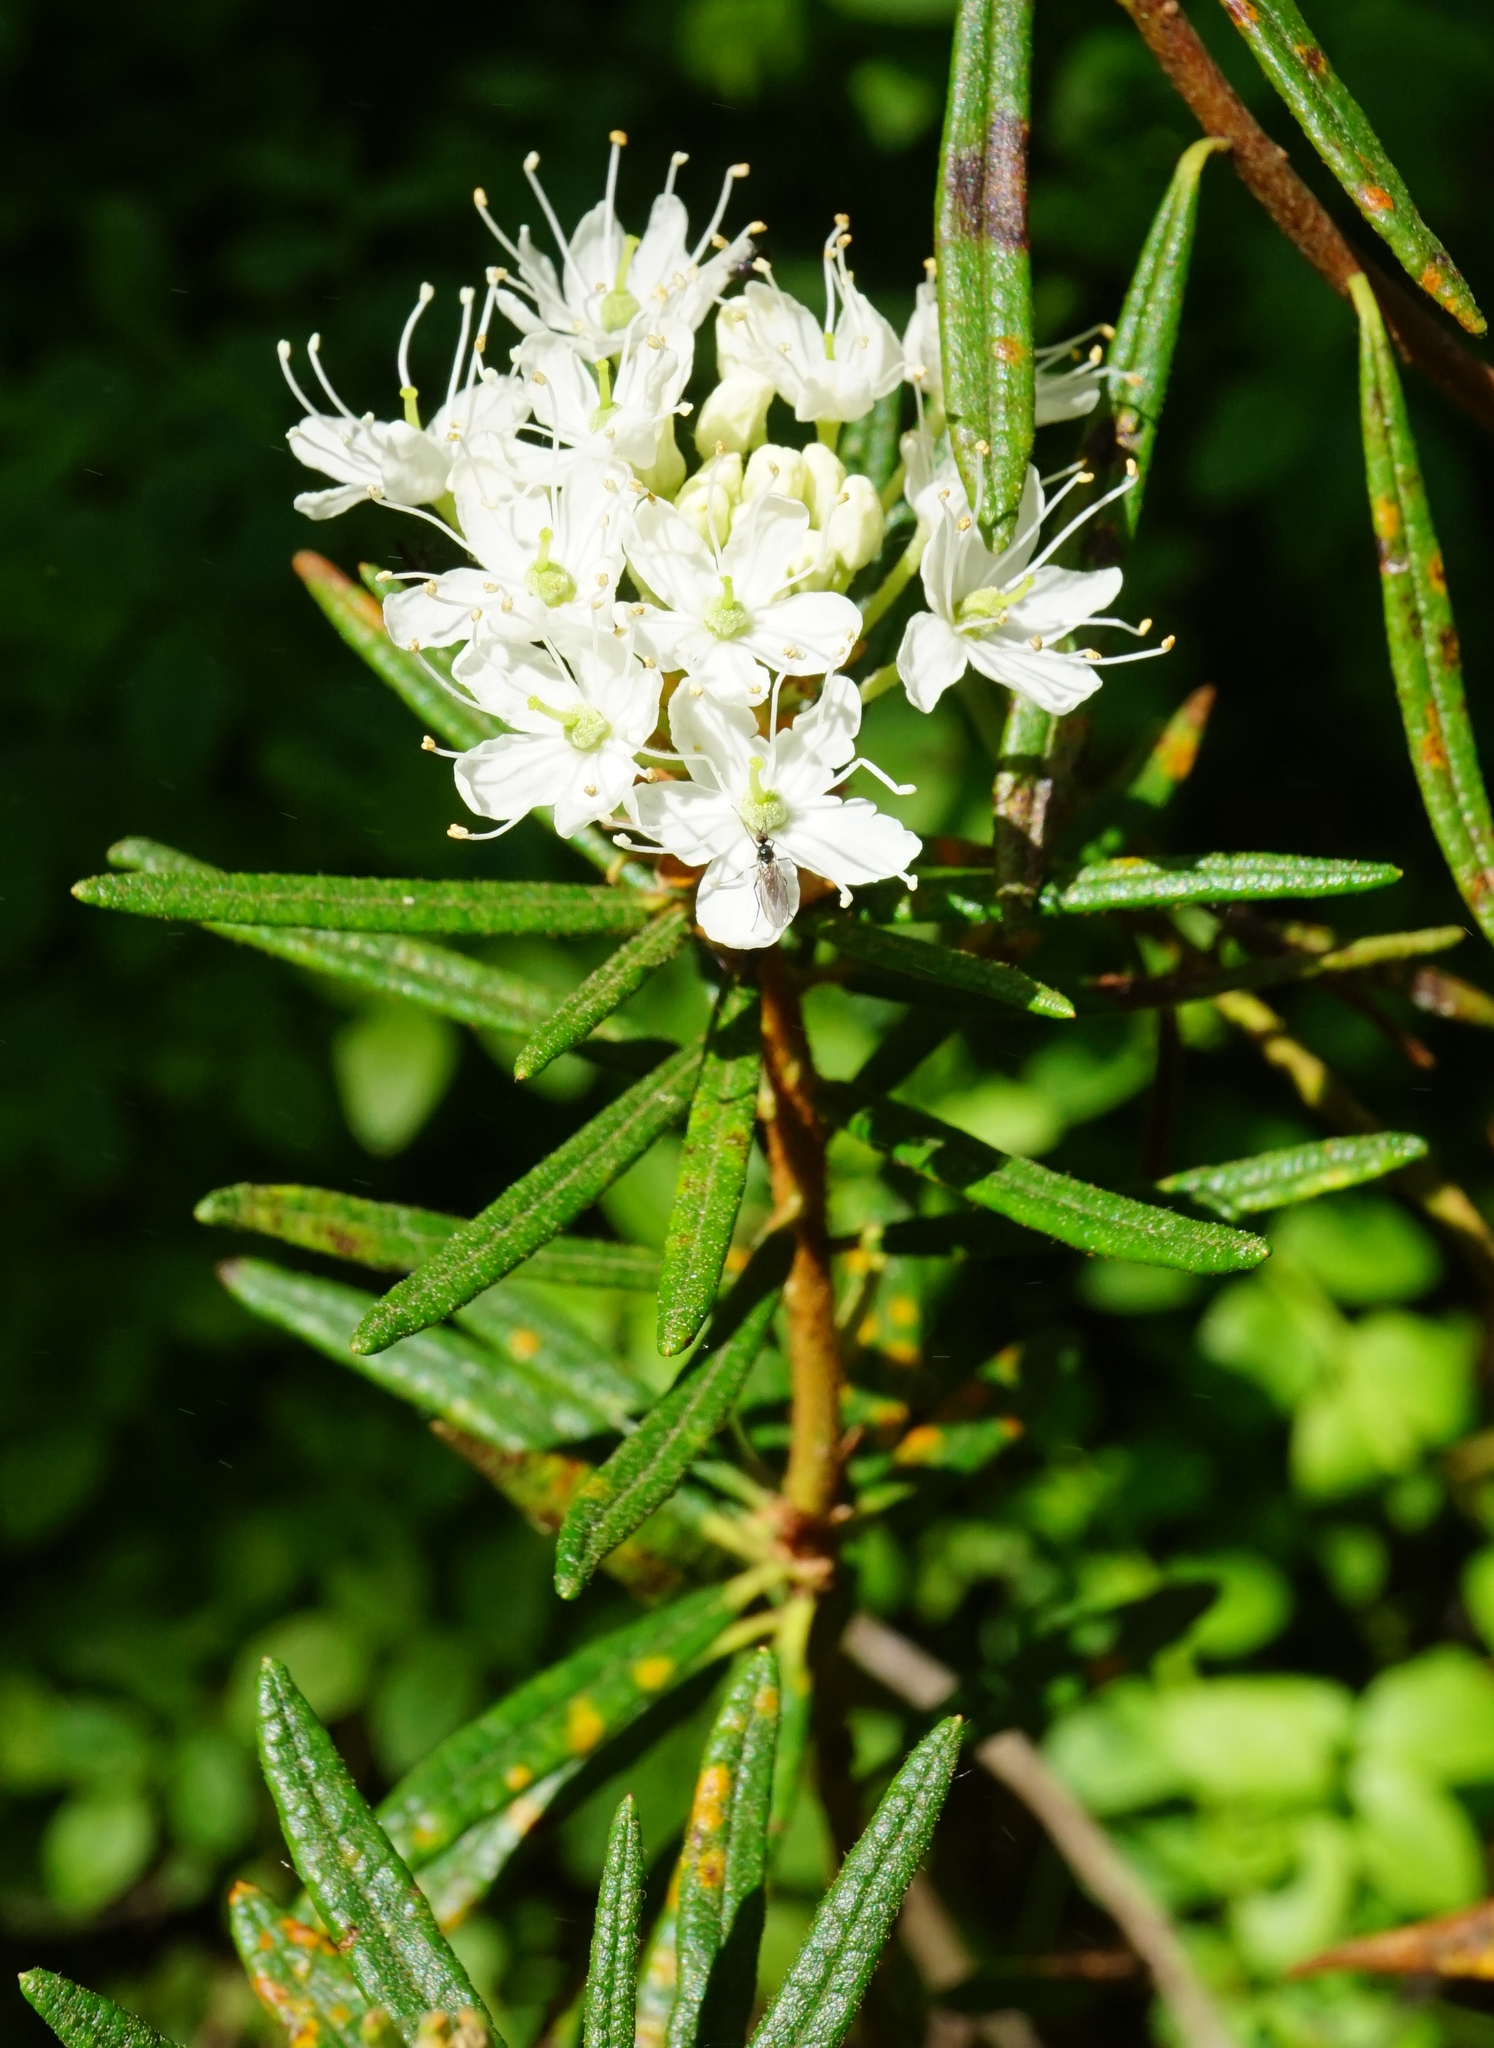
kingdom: Plantae
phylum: Tracheophyta
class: Magnoliopsida
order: Ericales
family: Ericaceae
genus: Rhododendron
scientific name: Rhododendron tomentosum
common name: Marsh labrador tea
